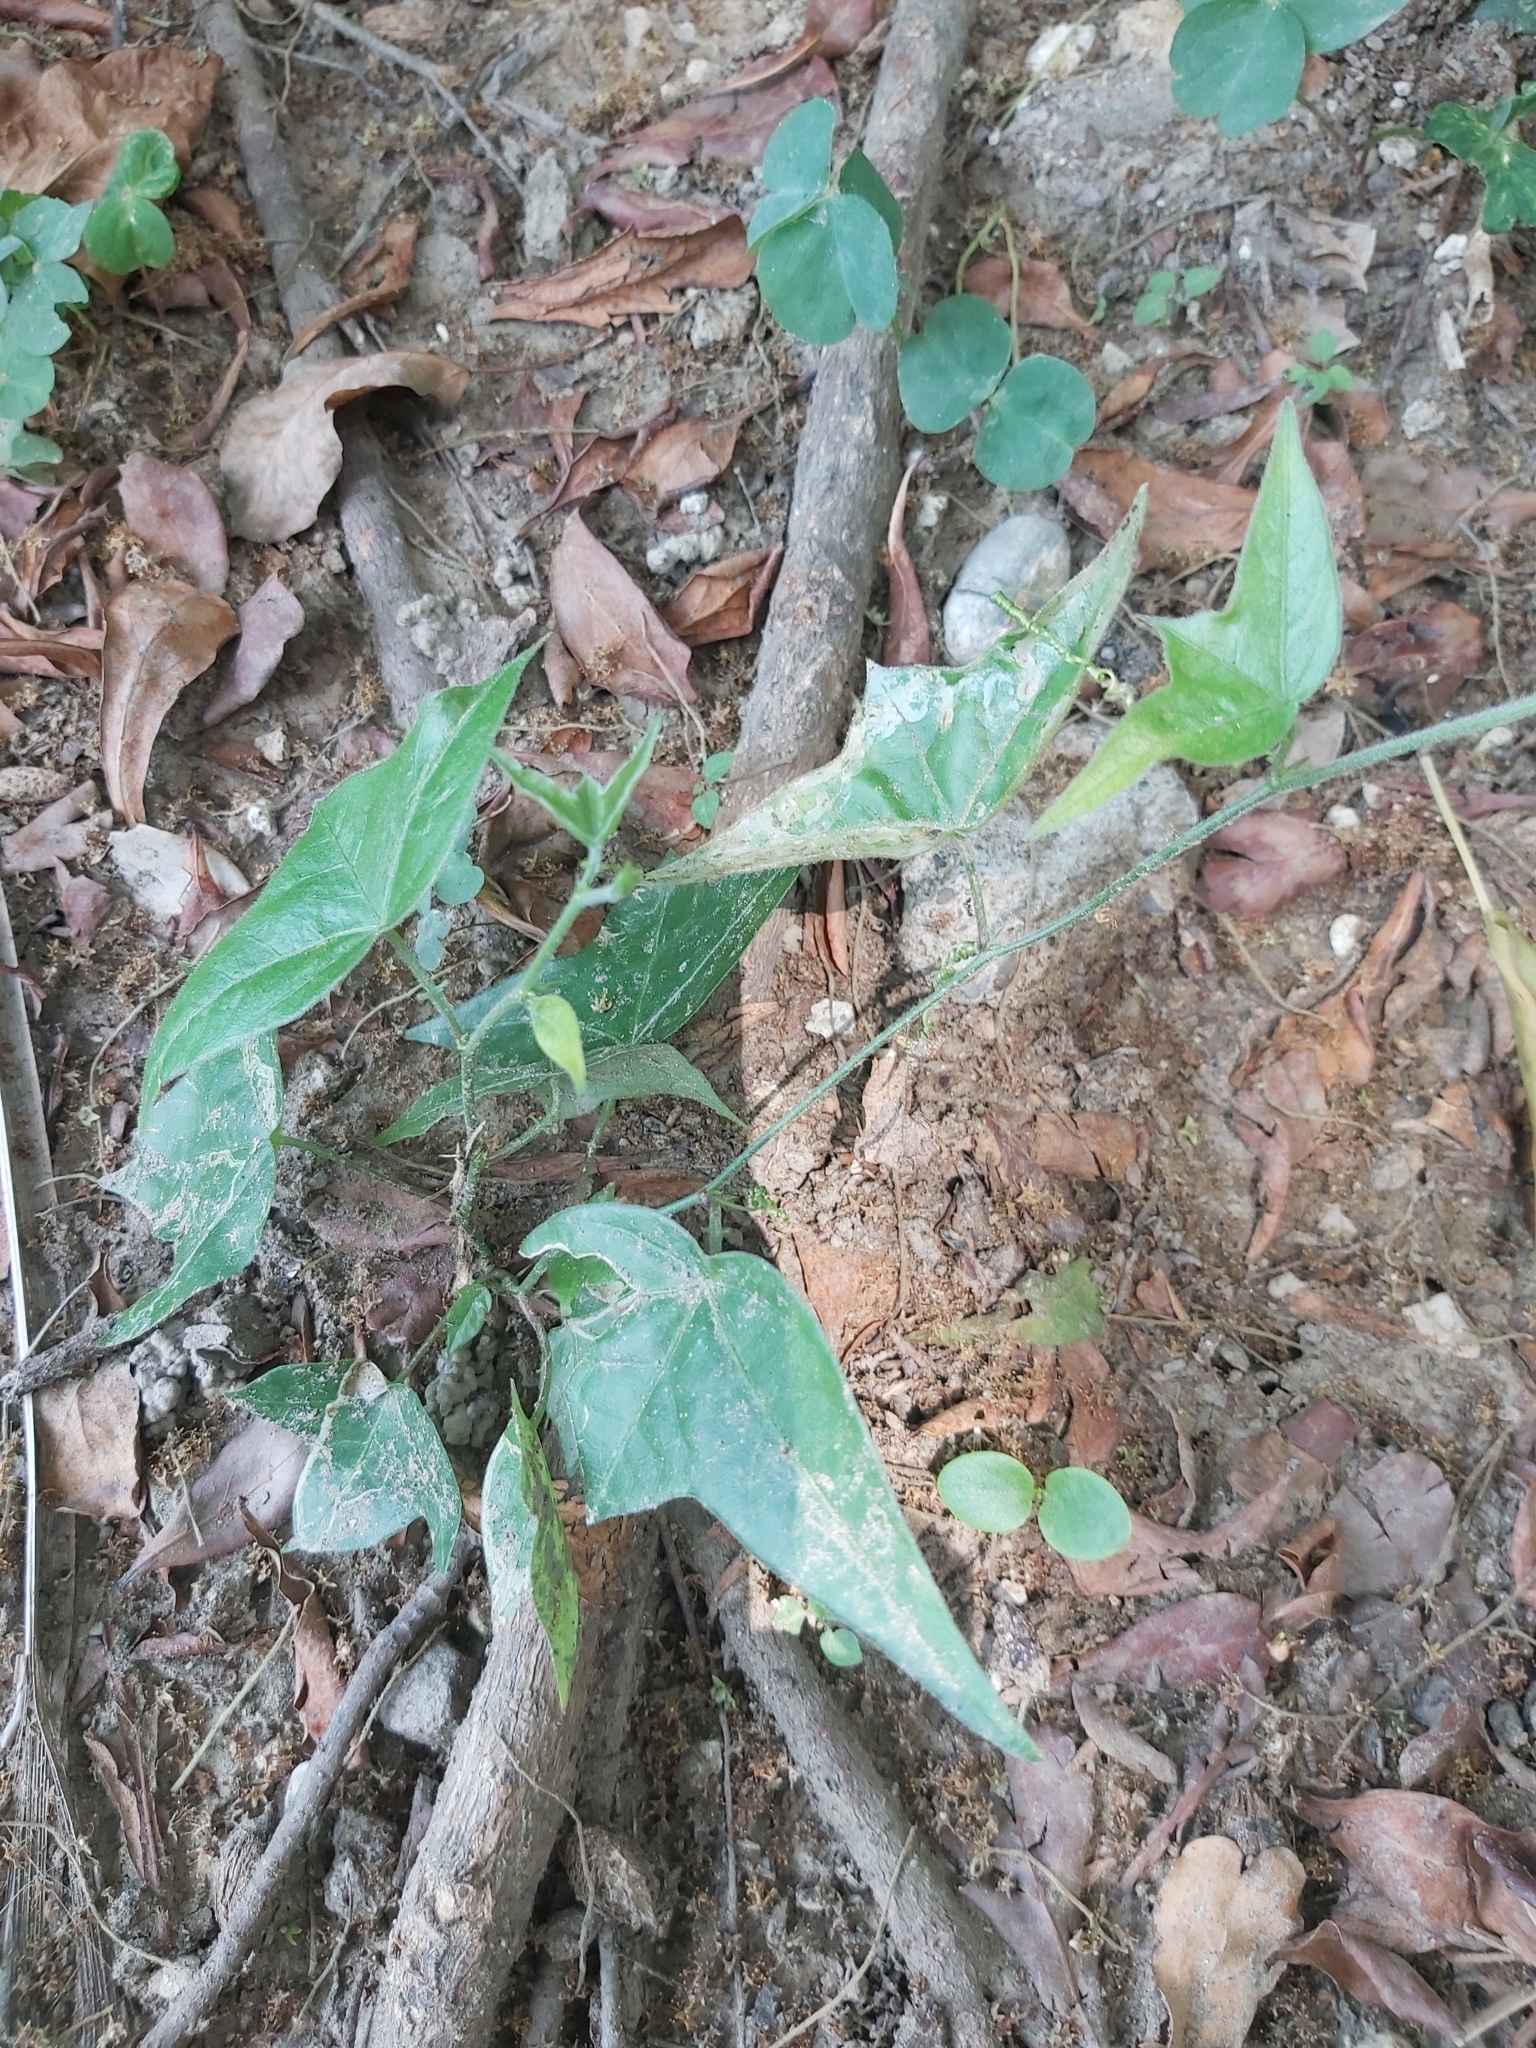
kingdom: Plantae
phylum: Tracheophyta
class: Magnoliopsida
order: Malpighiales
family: Passifloraceae
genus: Passiflora
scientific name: Passiflora suberosa
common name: Wild passionfruit
